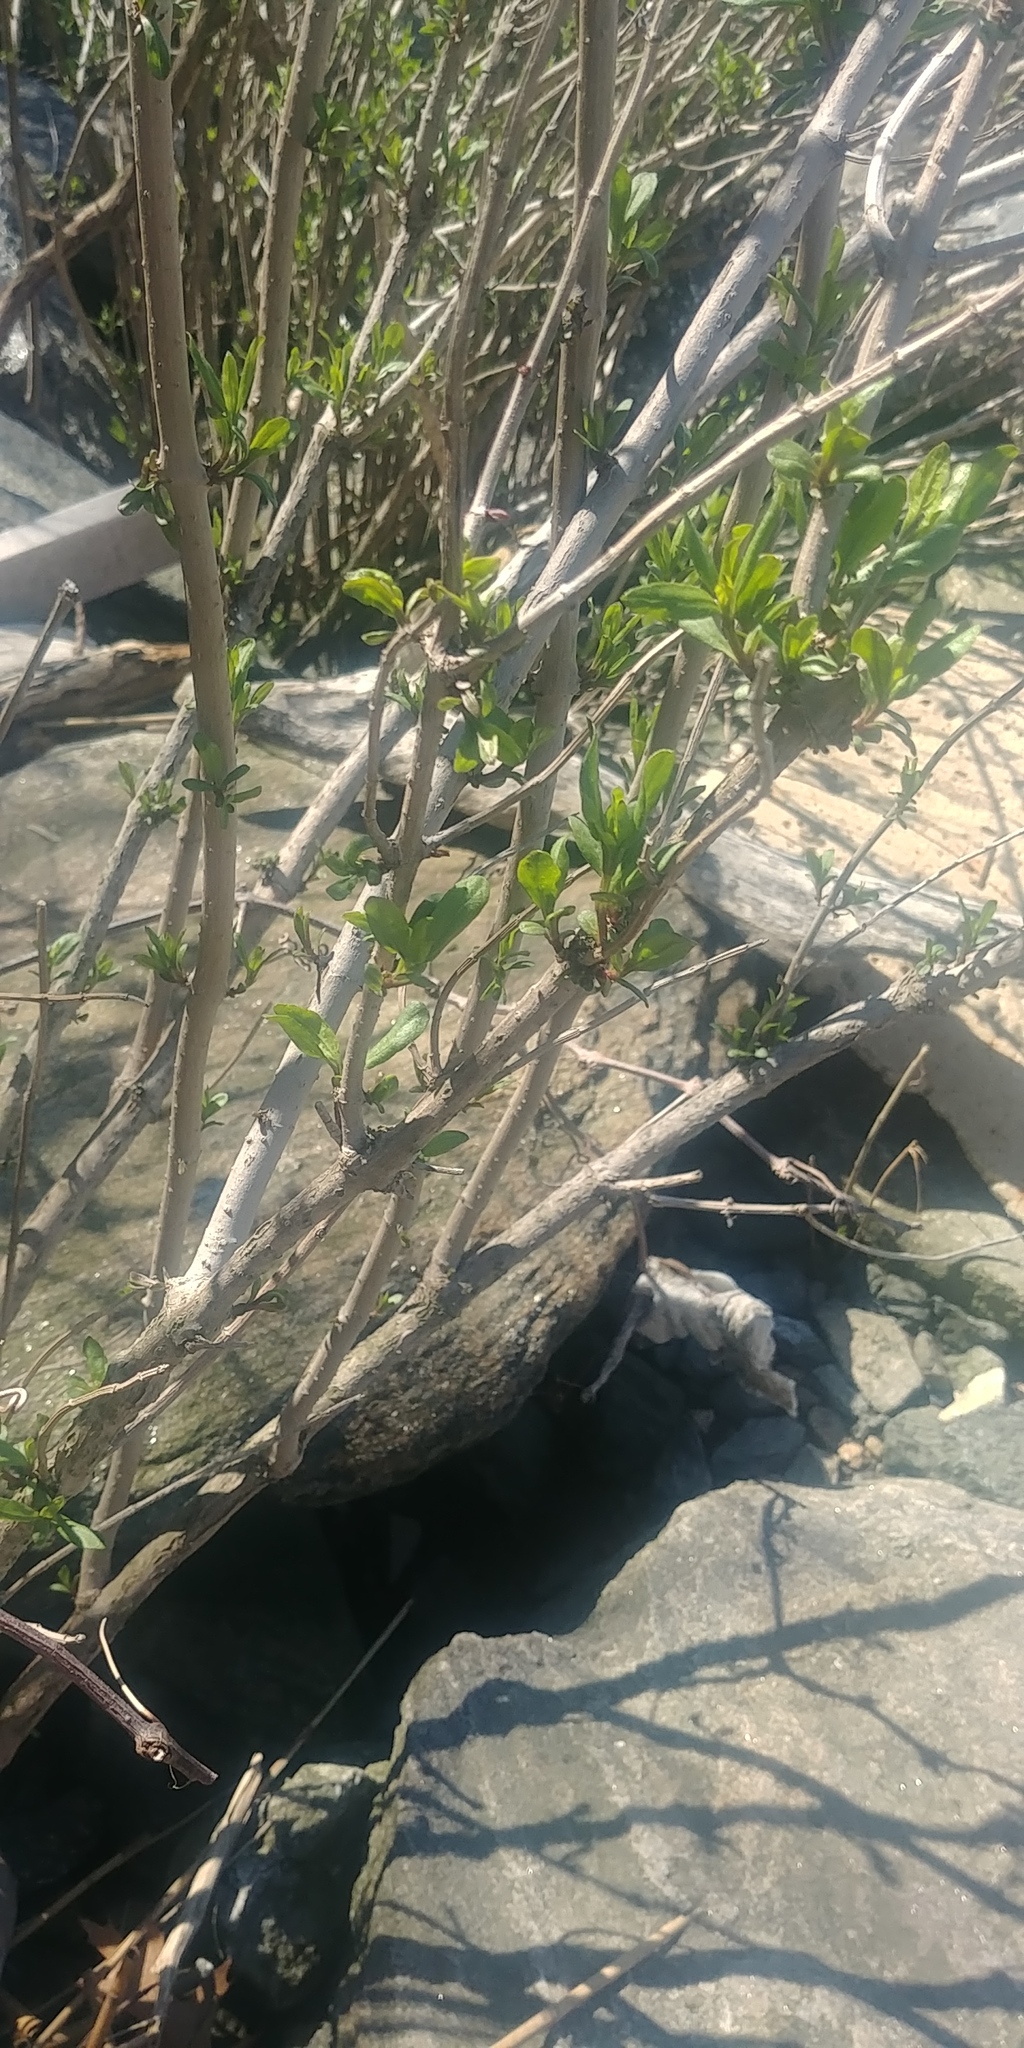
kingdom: Plantae
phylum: Tracheophyta
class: Magnoliopsida
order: Asterales
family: Asteraceae
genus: Iva
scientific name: Iva frutescens
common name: Big-leaved marsh-elder
